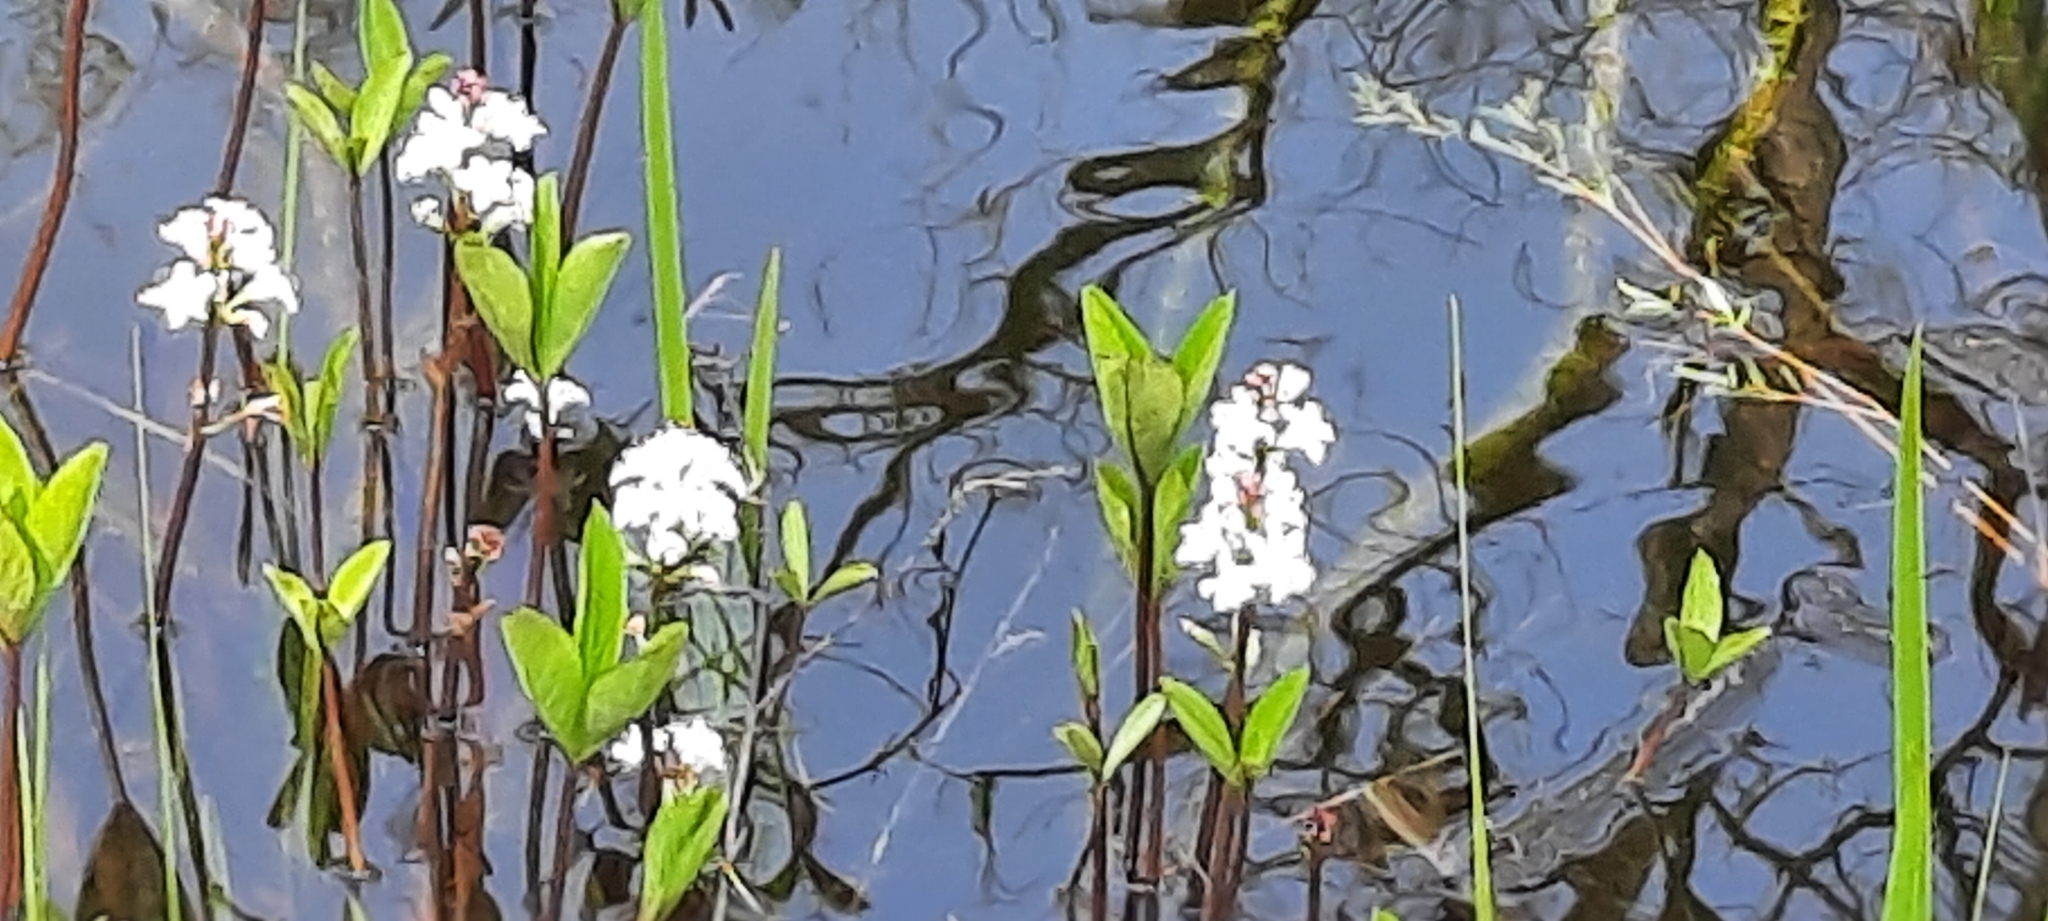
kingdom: Plantae
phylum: Tracheophyta
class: Magnoliopsida
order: Asterales
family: Menyanthaceae
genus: Menyanthes
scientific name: Menyanthes trifoliata
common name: Bogbean
